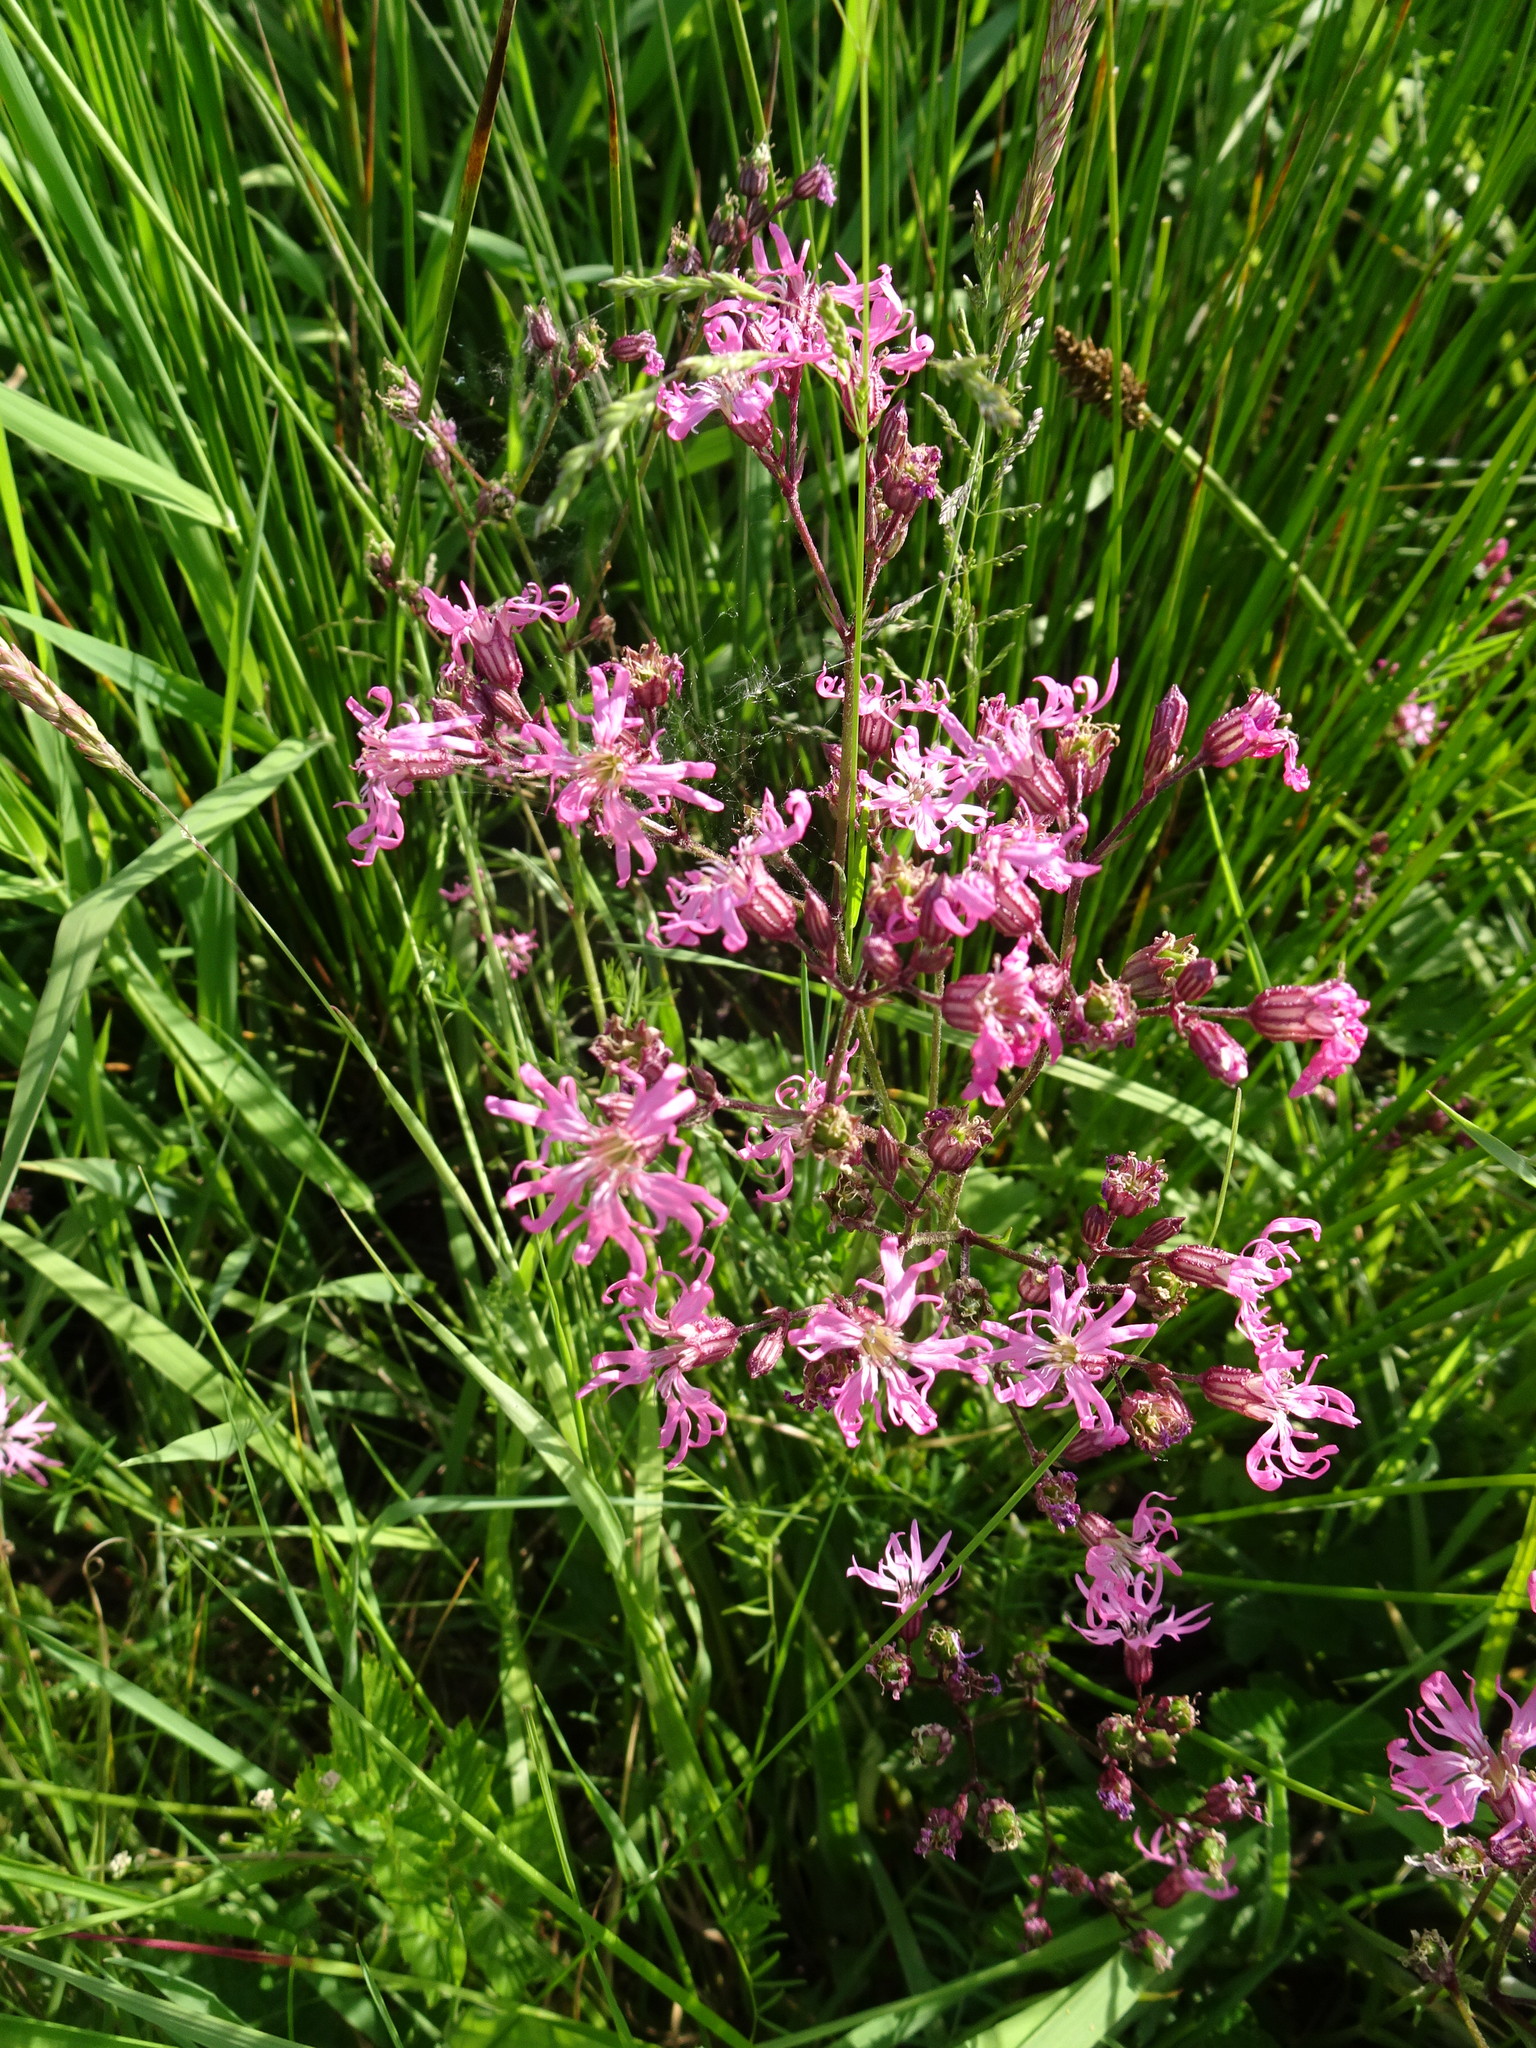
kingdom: Plantae
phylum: Tracheophyta
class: Magnoliopsida
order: Caryophyllales
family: Caryophyllaceae
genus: Silene
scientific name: Silene flos-cuculi
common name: Ragged-robin
